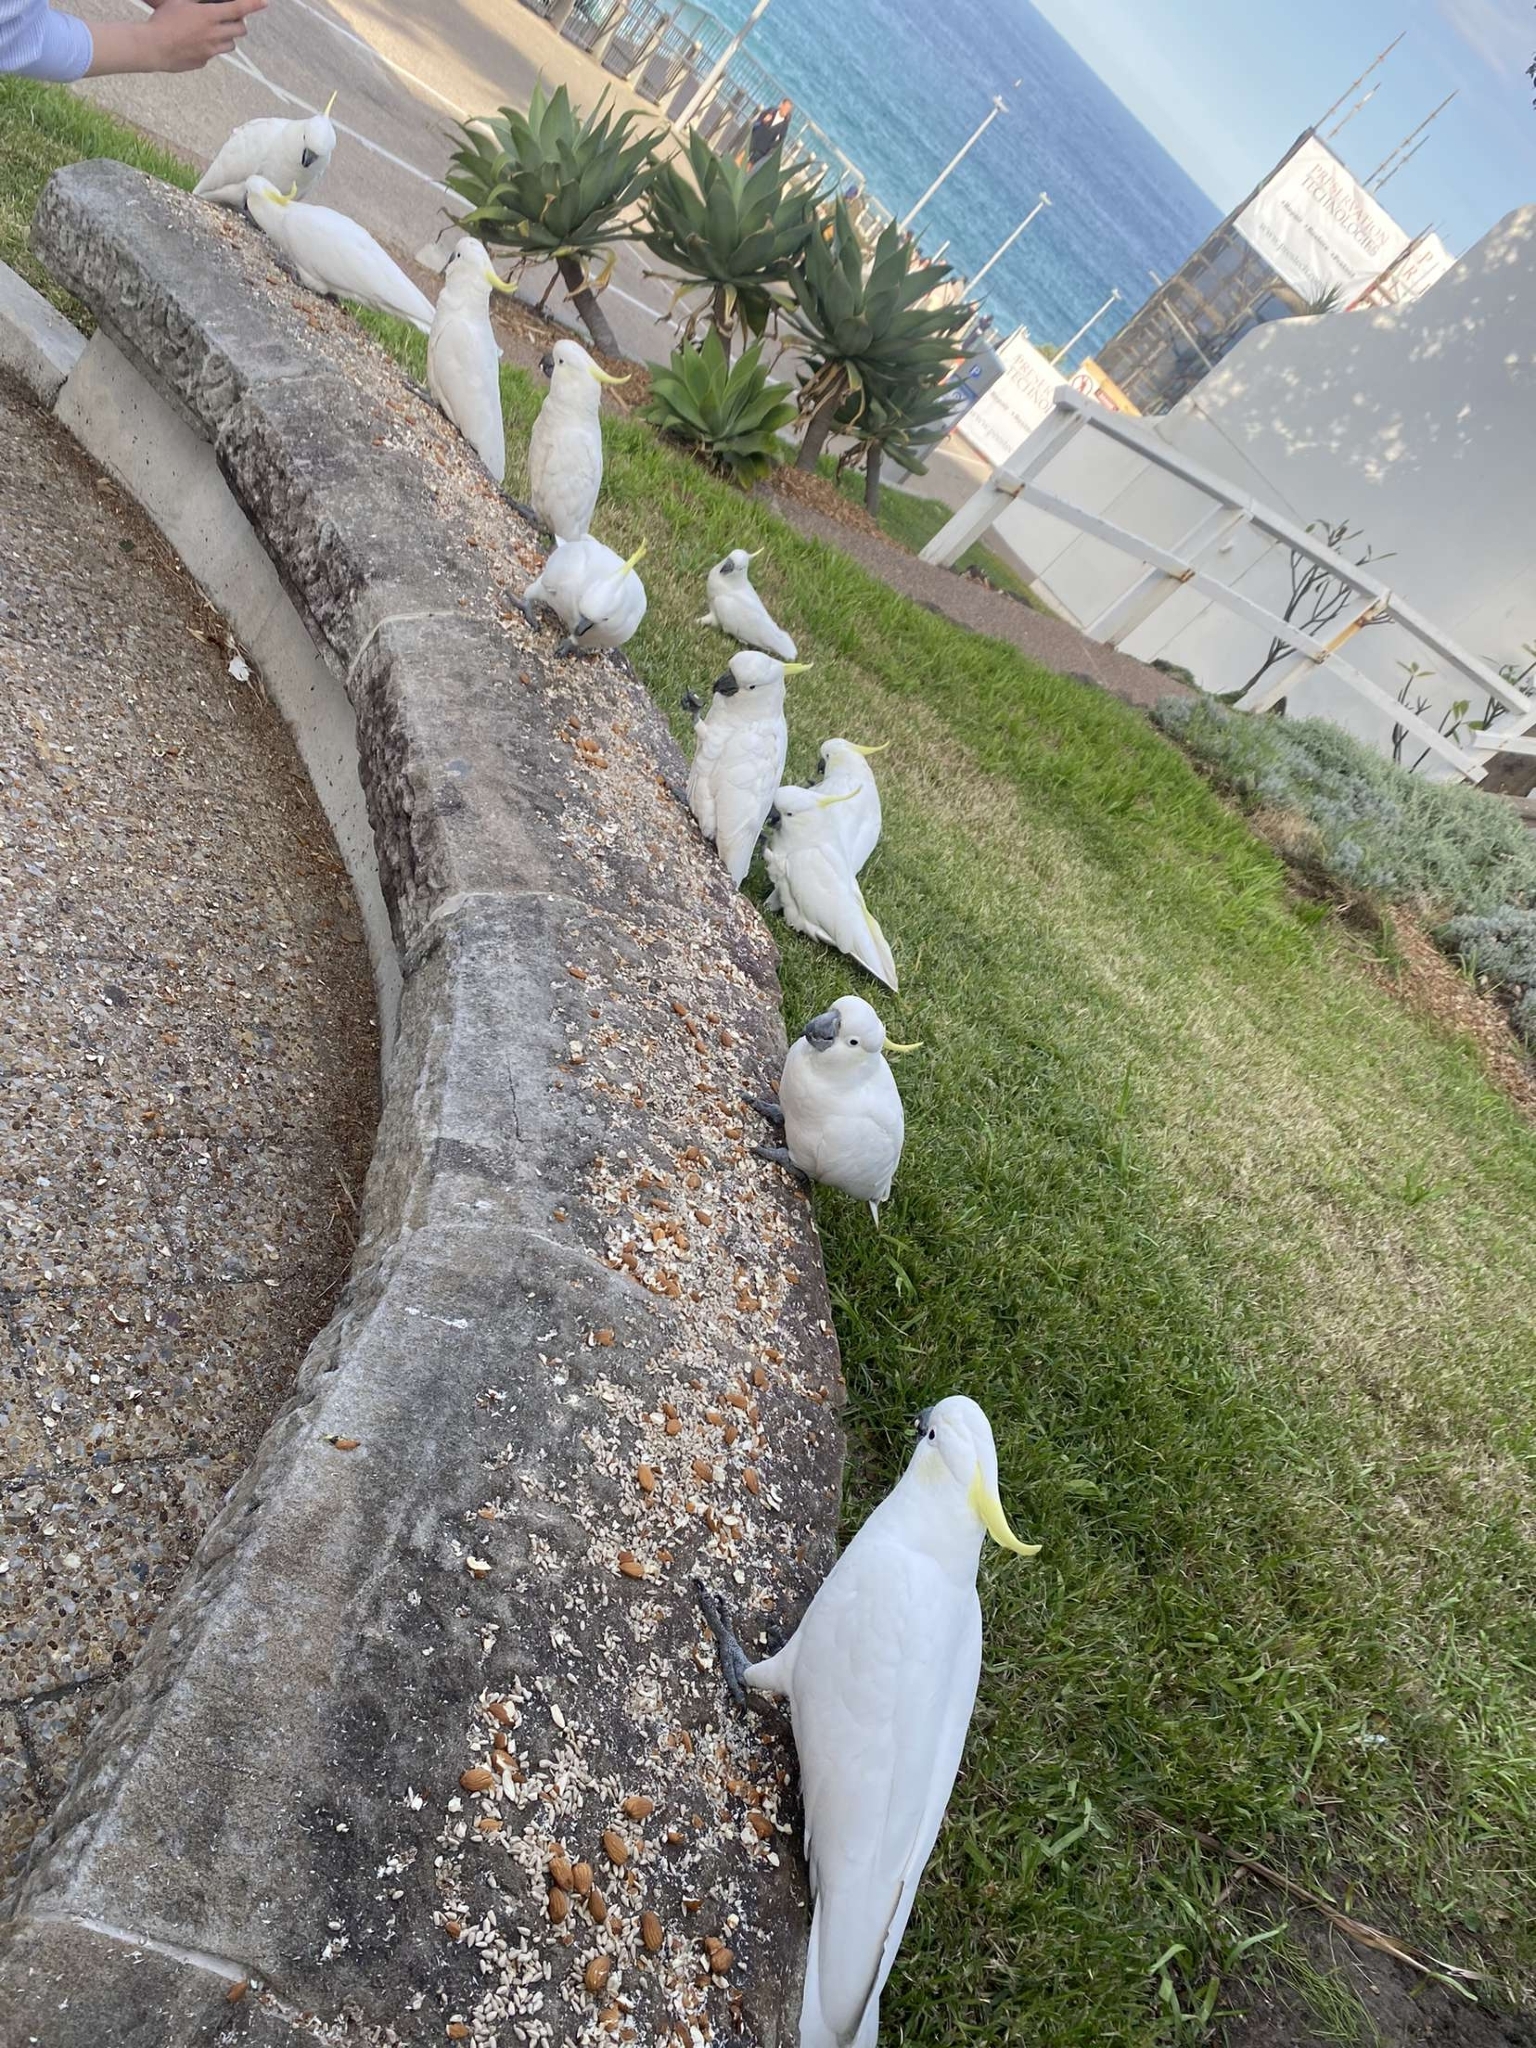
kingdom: Animalia
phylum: Chordata
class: Aves
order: Psittaciformes
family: Psittacidae
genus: Cacatua
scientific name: Cacatua galerita
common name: Sulphur-crested cockatoo
